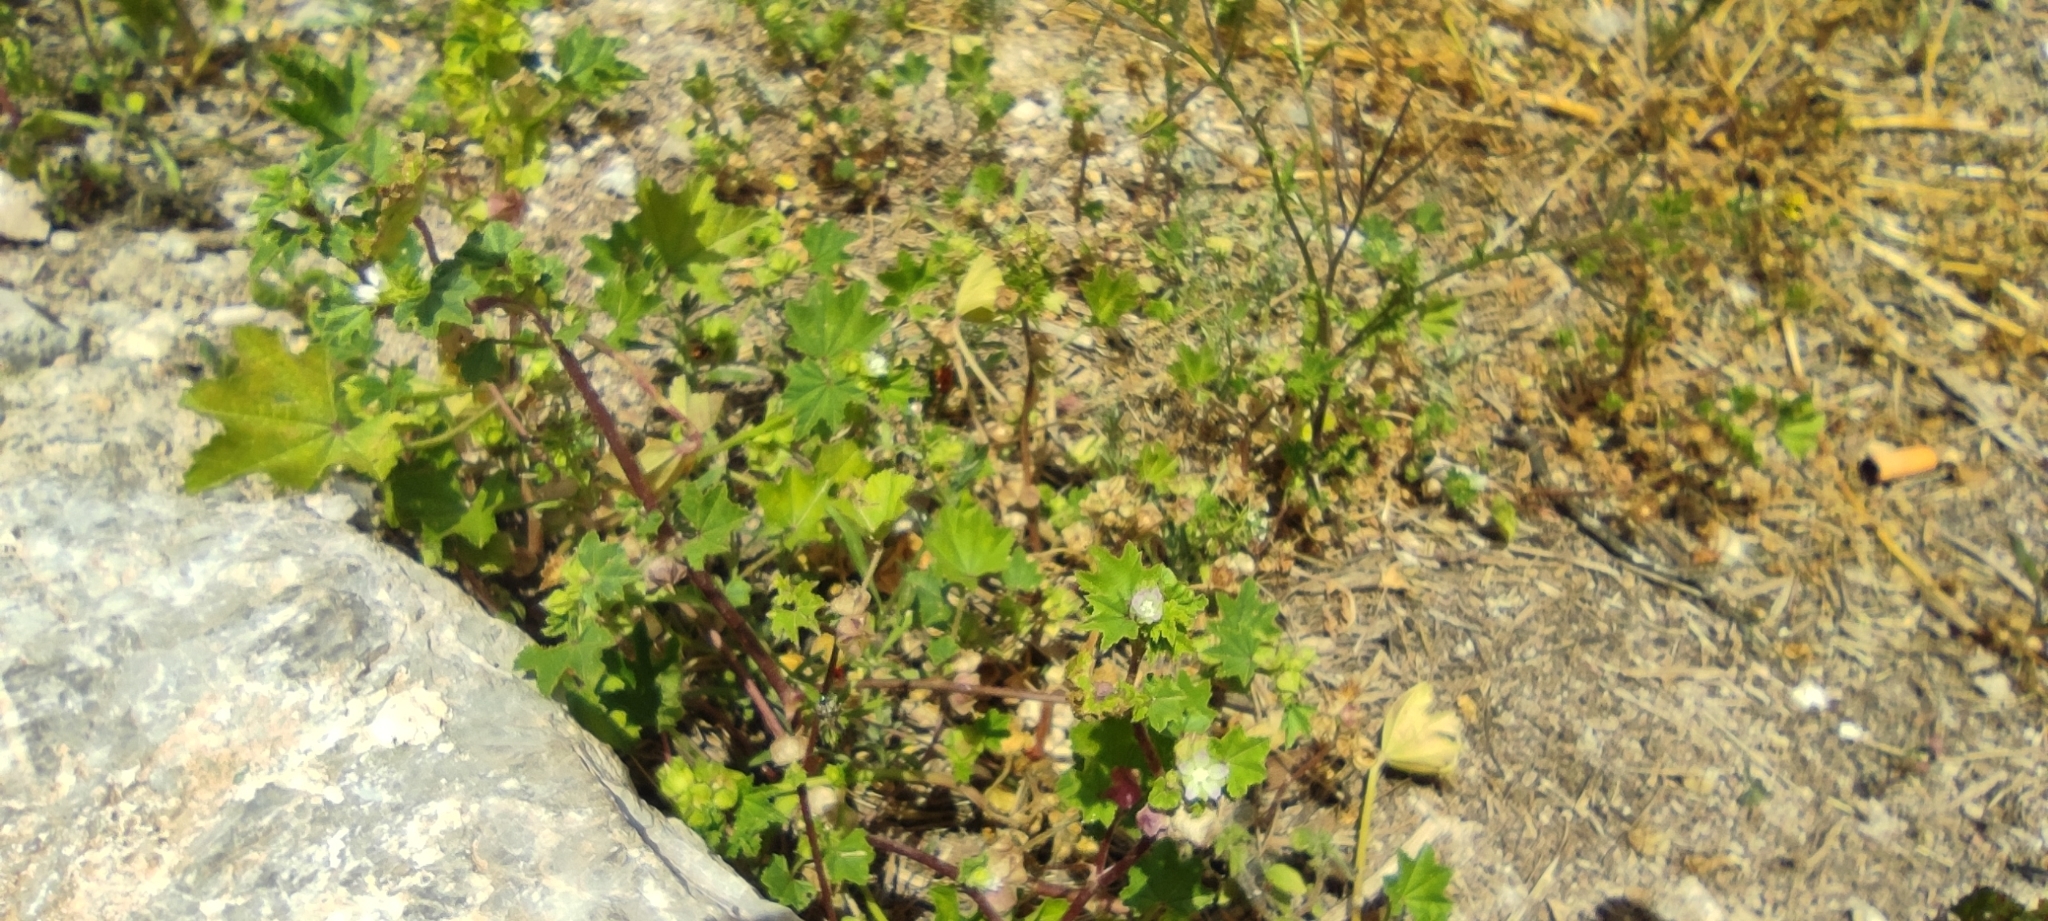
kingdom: Plantae
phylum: Tracheophyta
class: Magnoliopsida
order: Malvales
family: Malvaceae
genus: Malva
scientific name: Malva parviflora
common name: Least mallow
